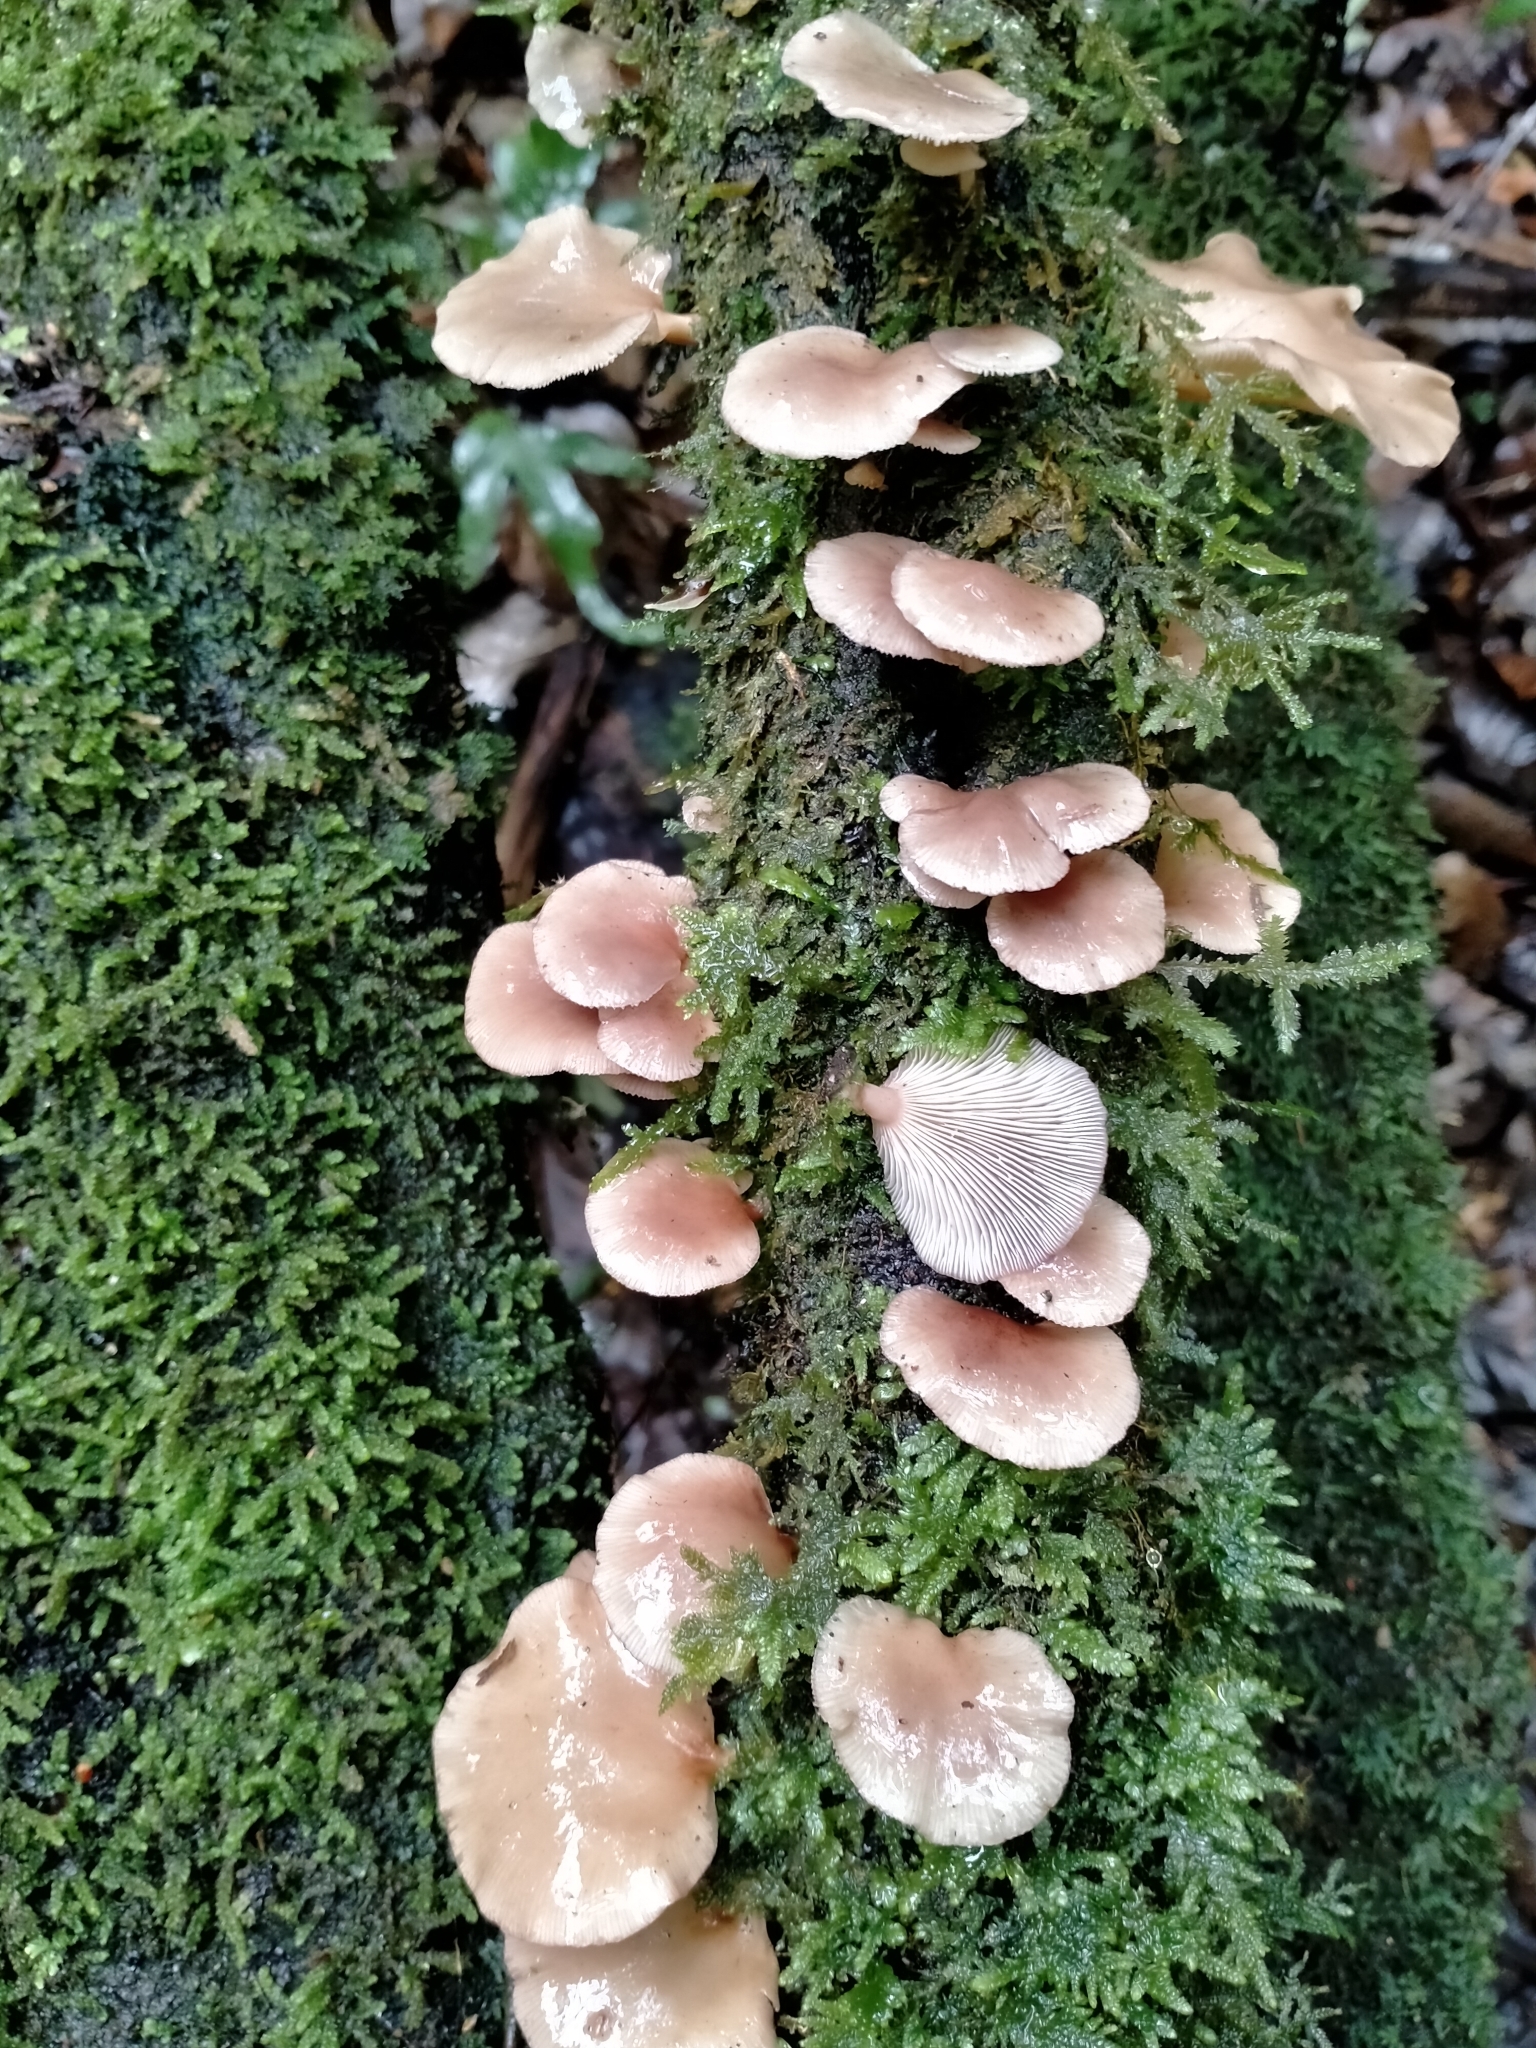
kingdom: Fungi
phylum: Basidiomycota
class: Agaricomycetes
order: Agaricales
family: Mycenaceae
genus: Panellus
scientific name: Panellus longinquus
